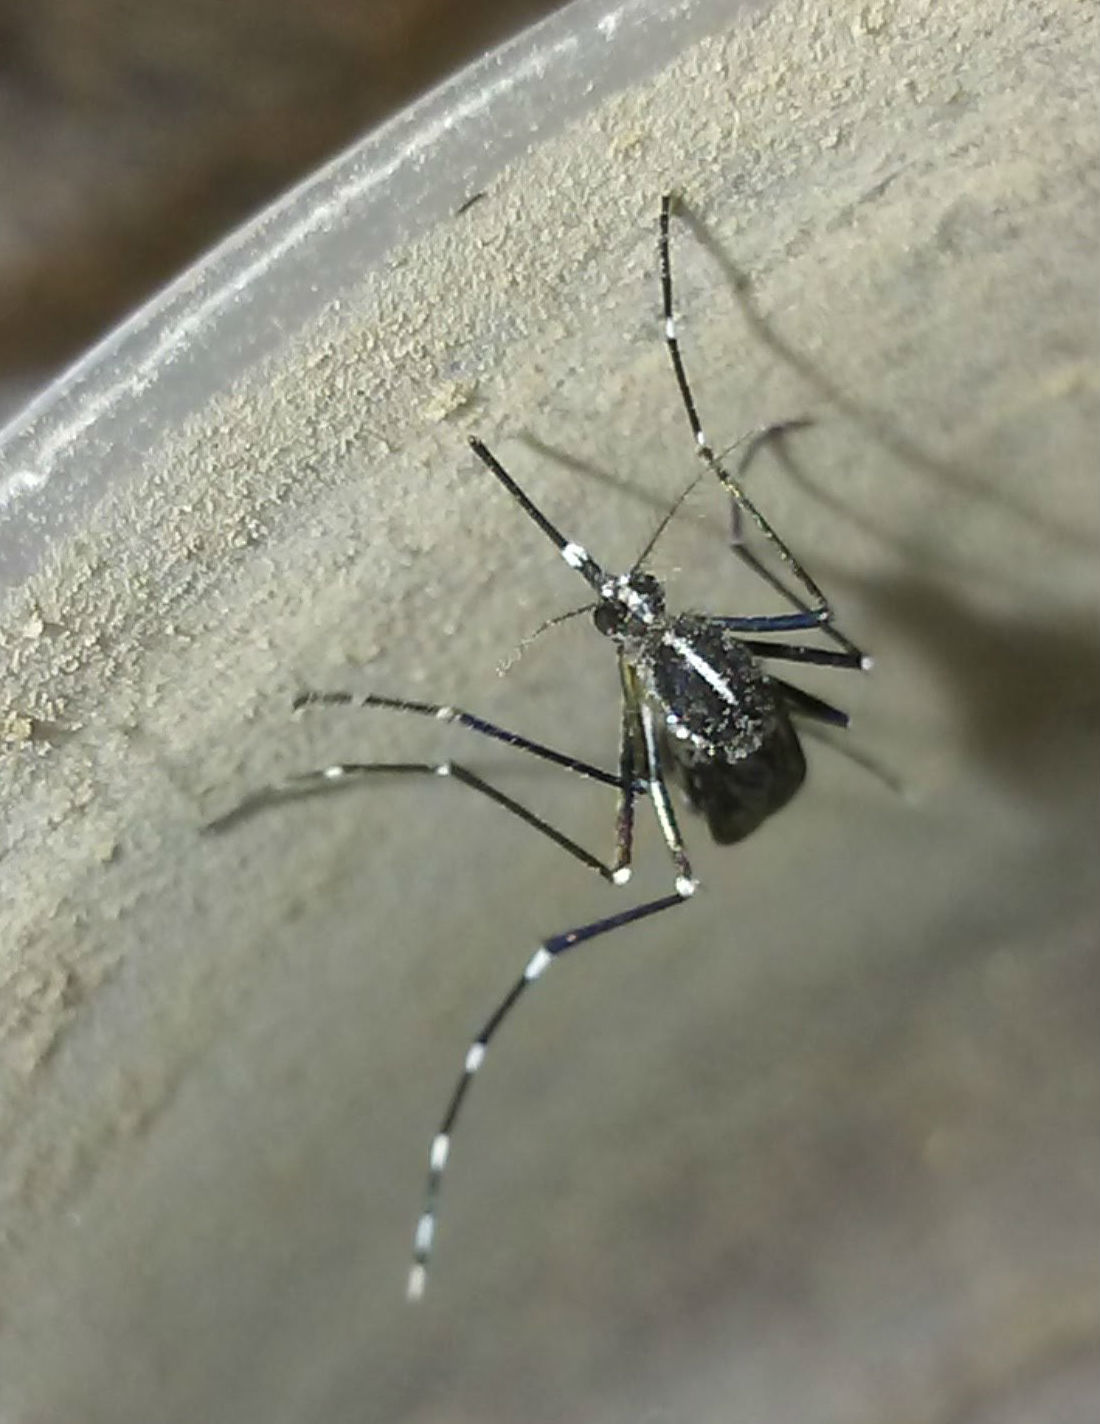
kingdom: Animalia
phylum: Arthropoda
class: Insecta
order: Diptera
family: Culicidae
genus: Aedes
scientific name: Aedes albopictus
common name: Tiger mosquito
